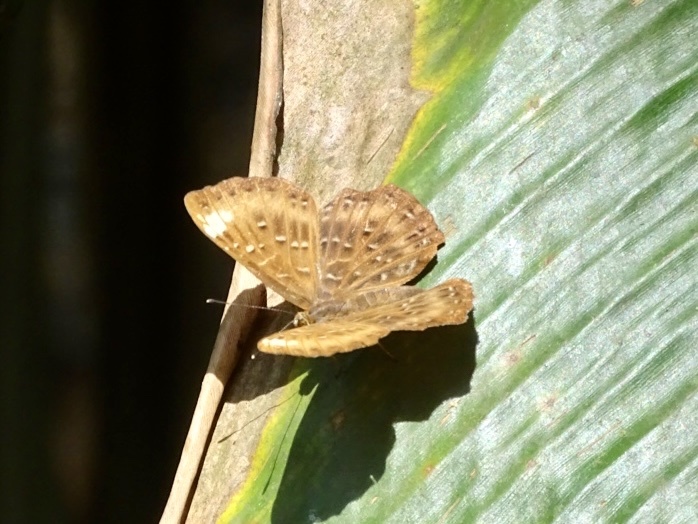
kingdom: Animalia
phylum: Arthropoda
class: Insecta
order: Lepidoptera
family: Riodinidae
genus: Zemeros
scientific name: Zemeros flegyas
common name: Punchinello
